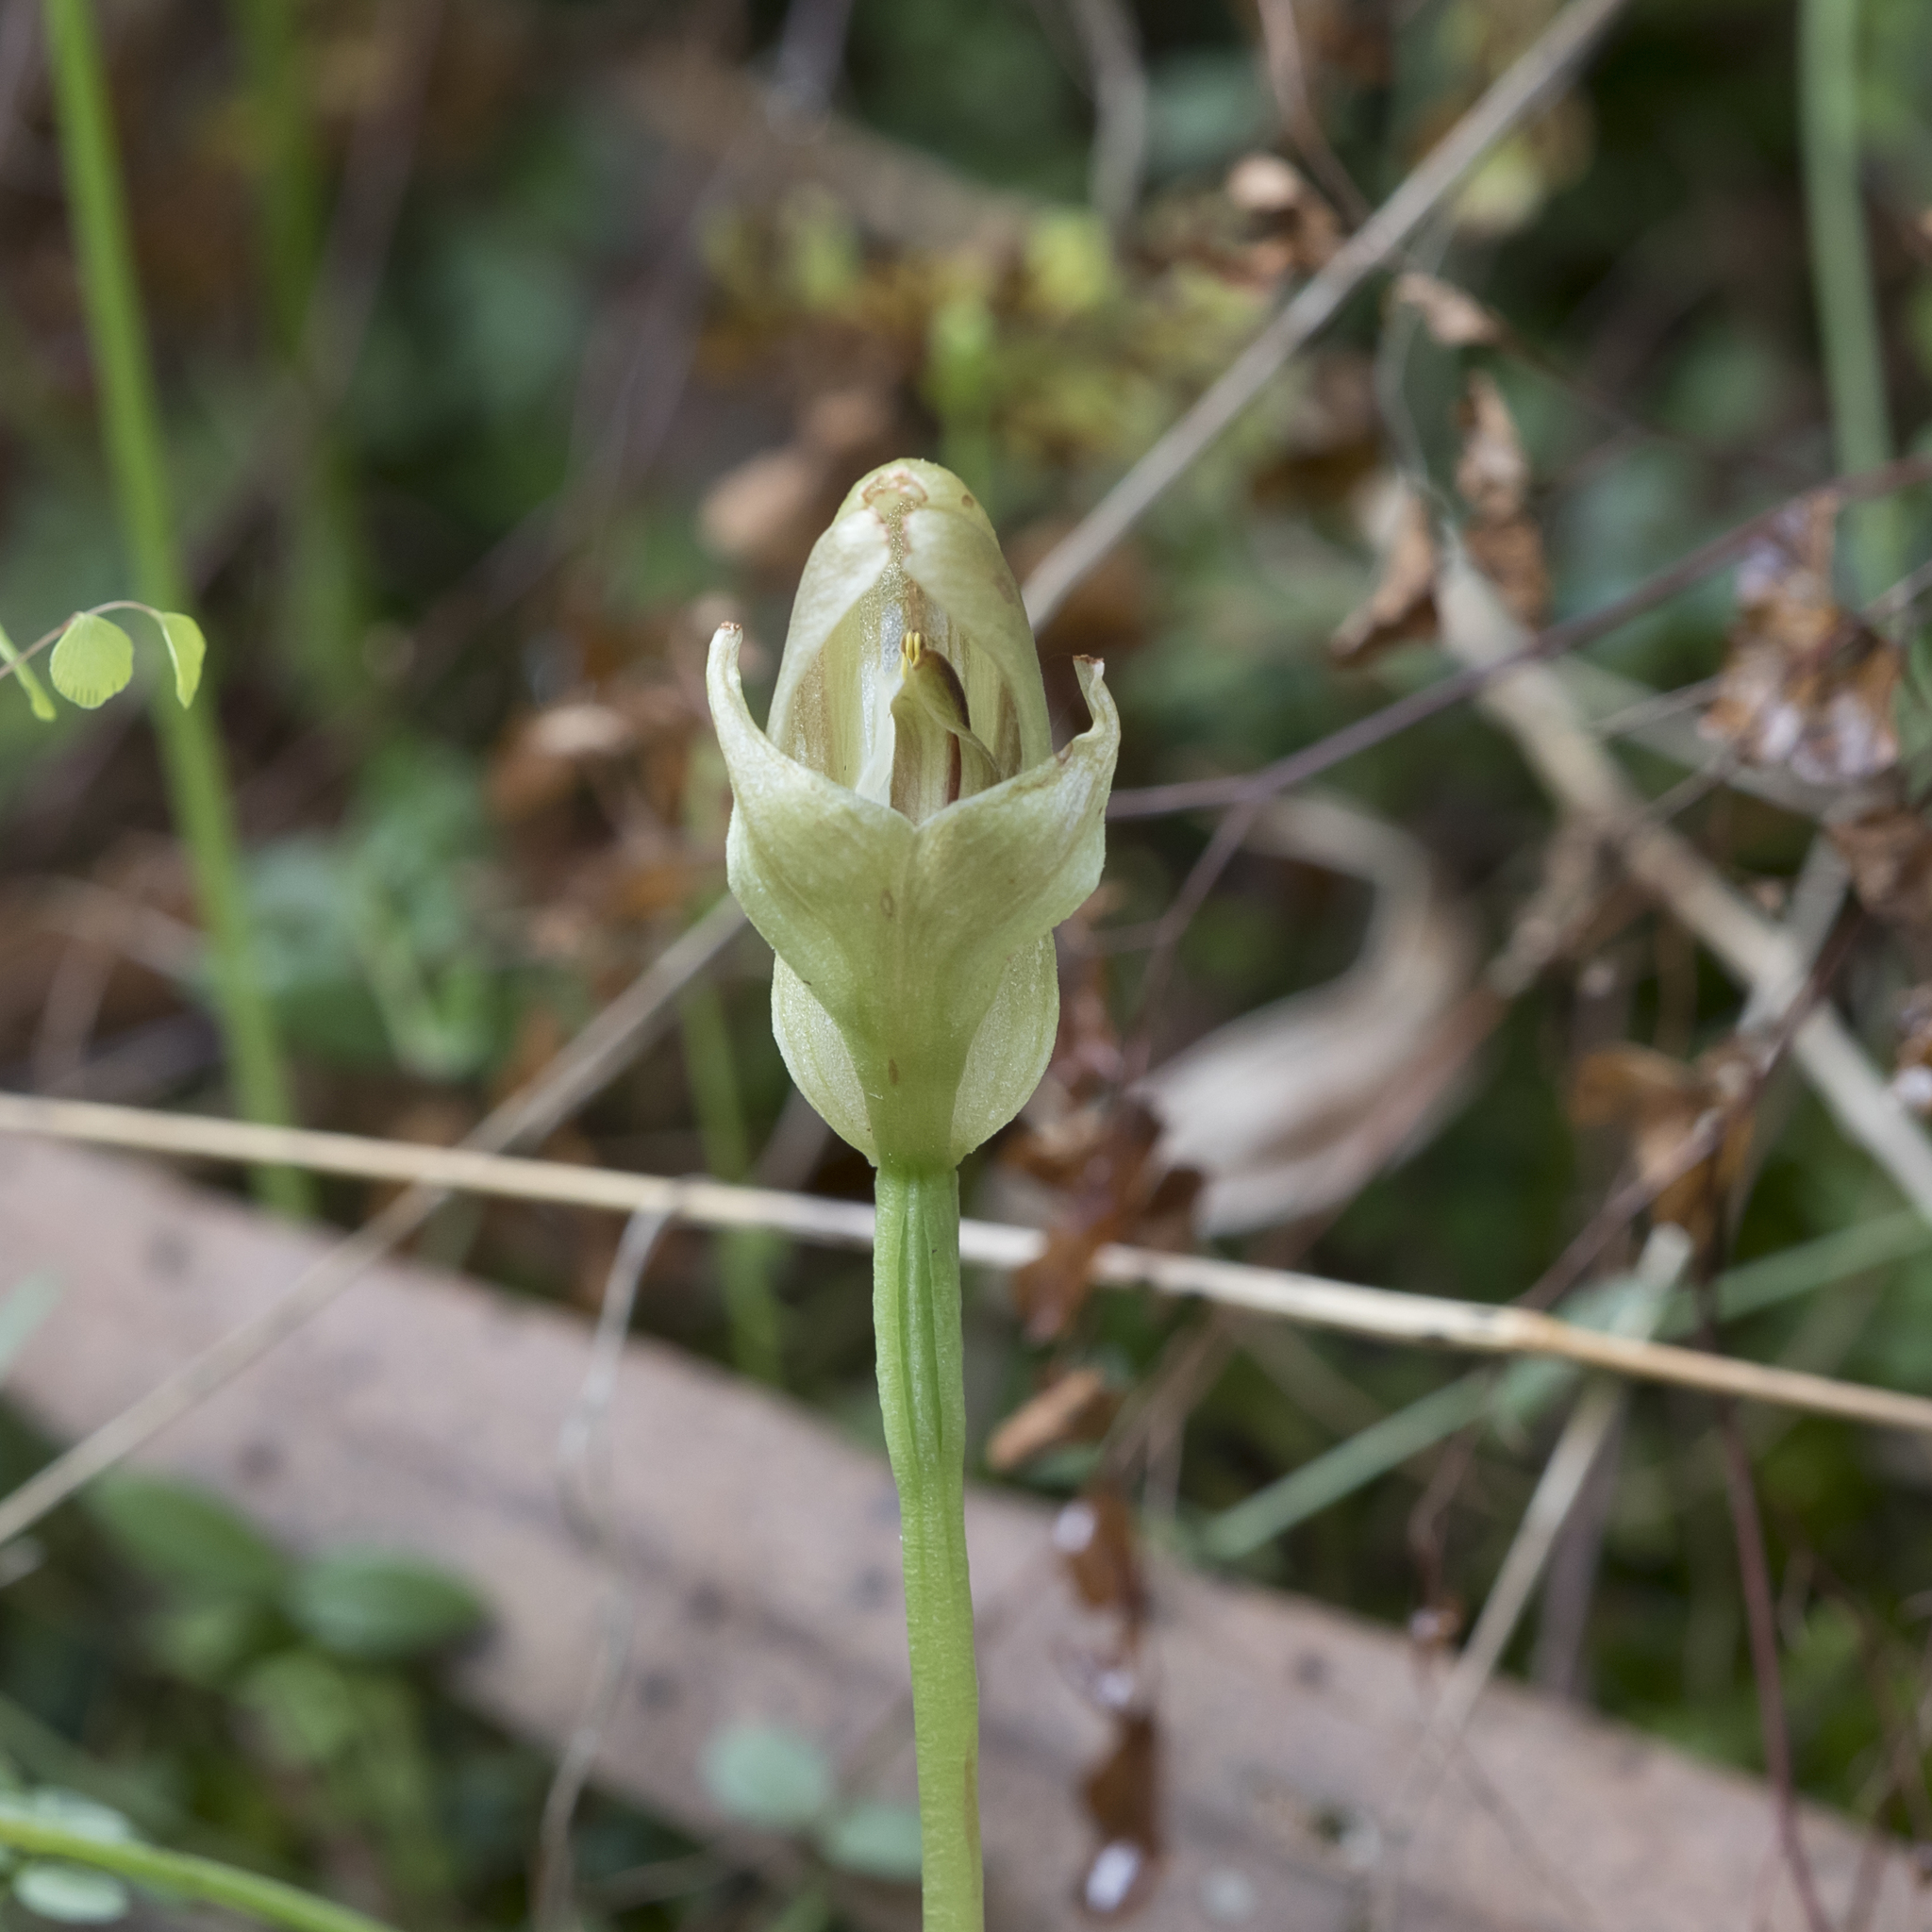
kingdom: Plantae
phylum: Tracheophyta
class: Liliopsida
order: Asparagales
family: Orchidaceae
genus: Pterostylis
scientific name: Pterostylis curta
